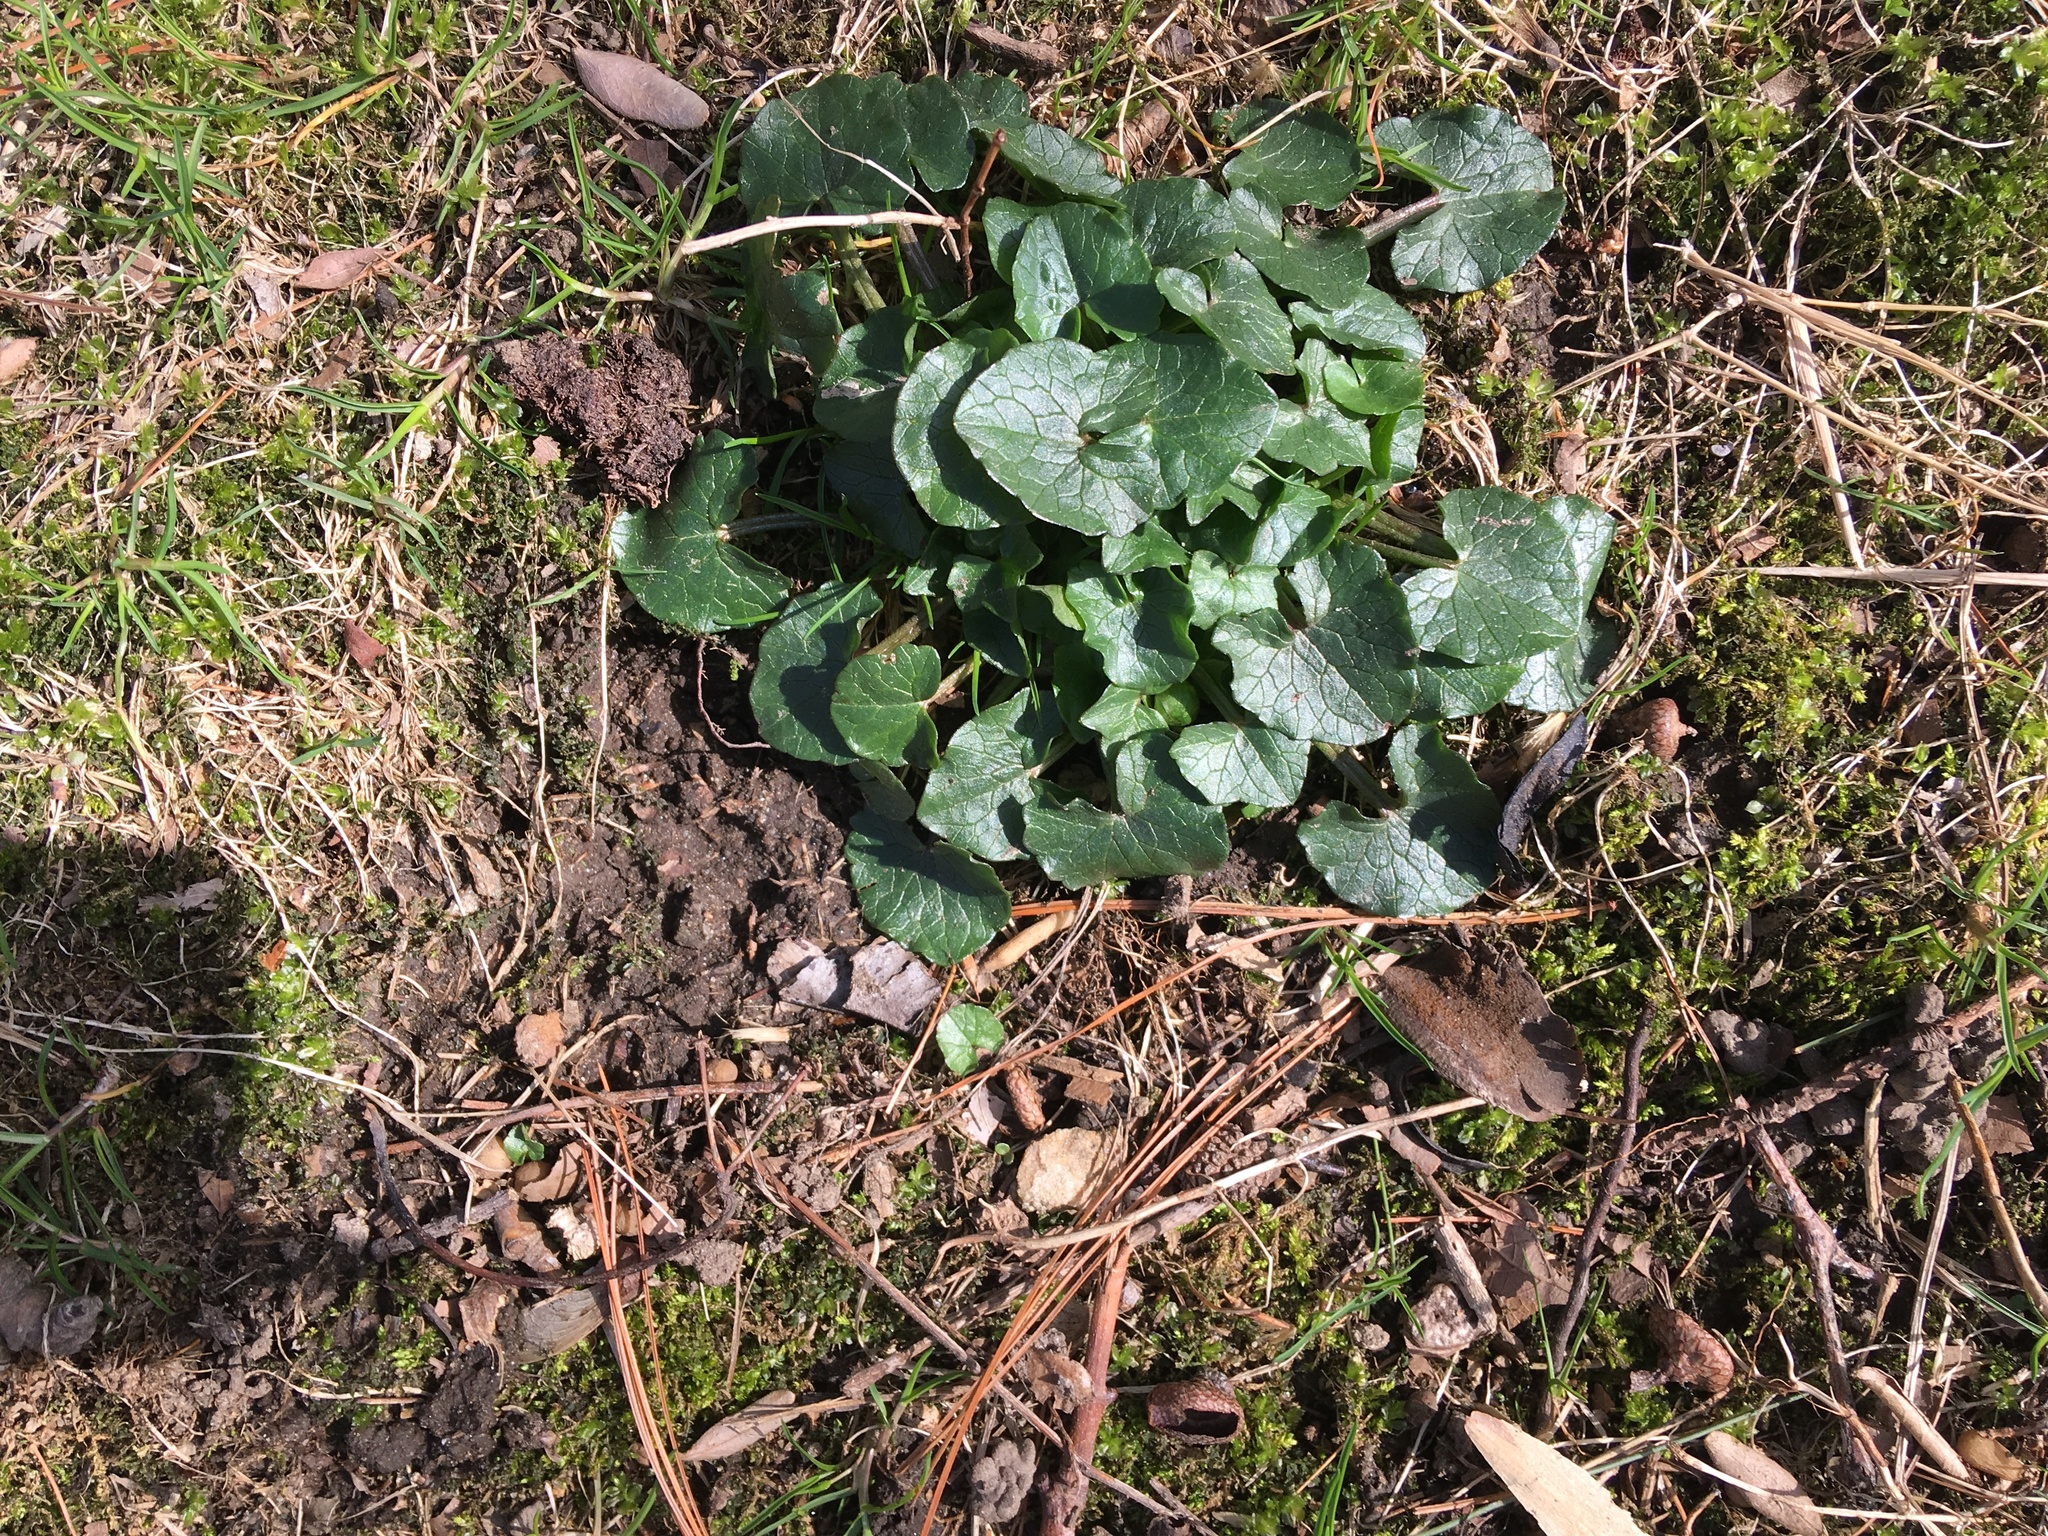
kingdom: Plantae
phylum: Tracheophyta
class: Magnoliopsida
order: Ranunculales
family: Ranunculaceae
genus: Ficaria
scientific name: Ficaria verna
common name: Lesser celandine
